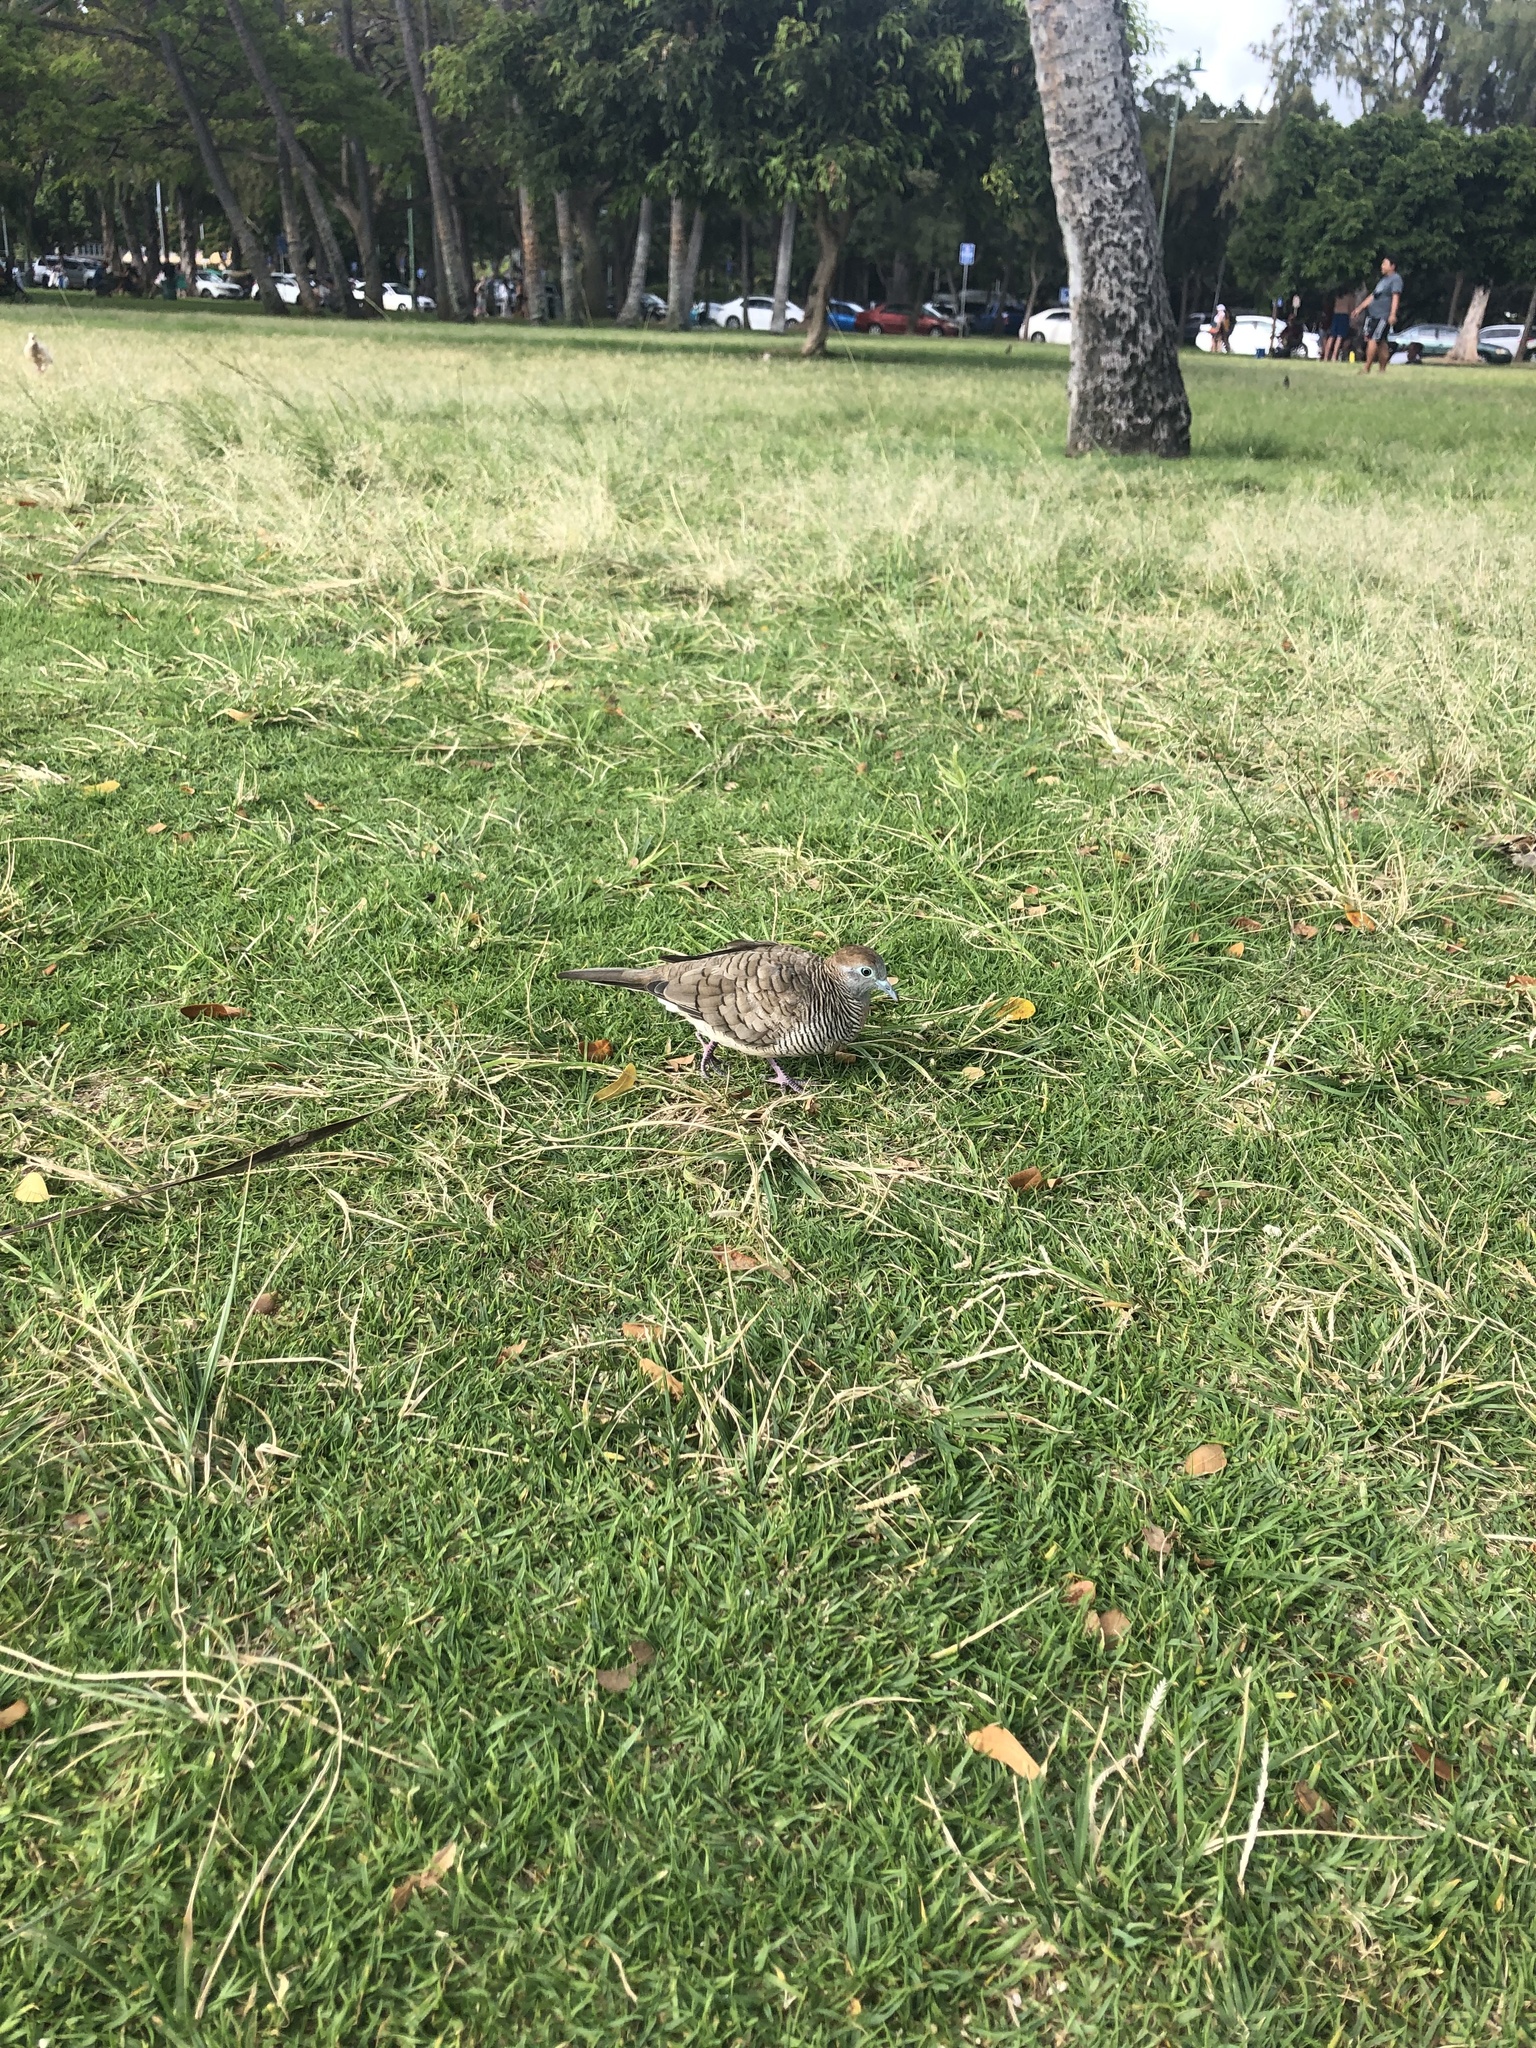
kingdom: Animalia
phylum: Chordata
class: Aves
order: Columbiformes
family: Columbidae
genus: Geopelia
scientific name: Geopelia striata
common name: Zebra dove
